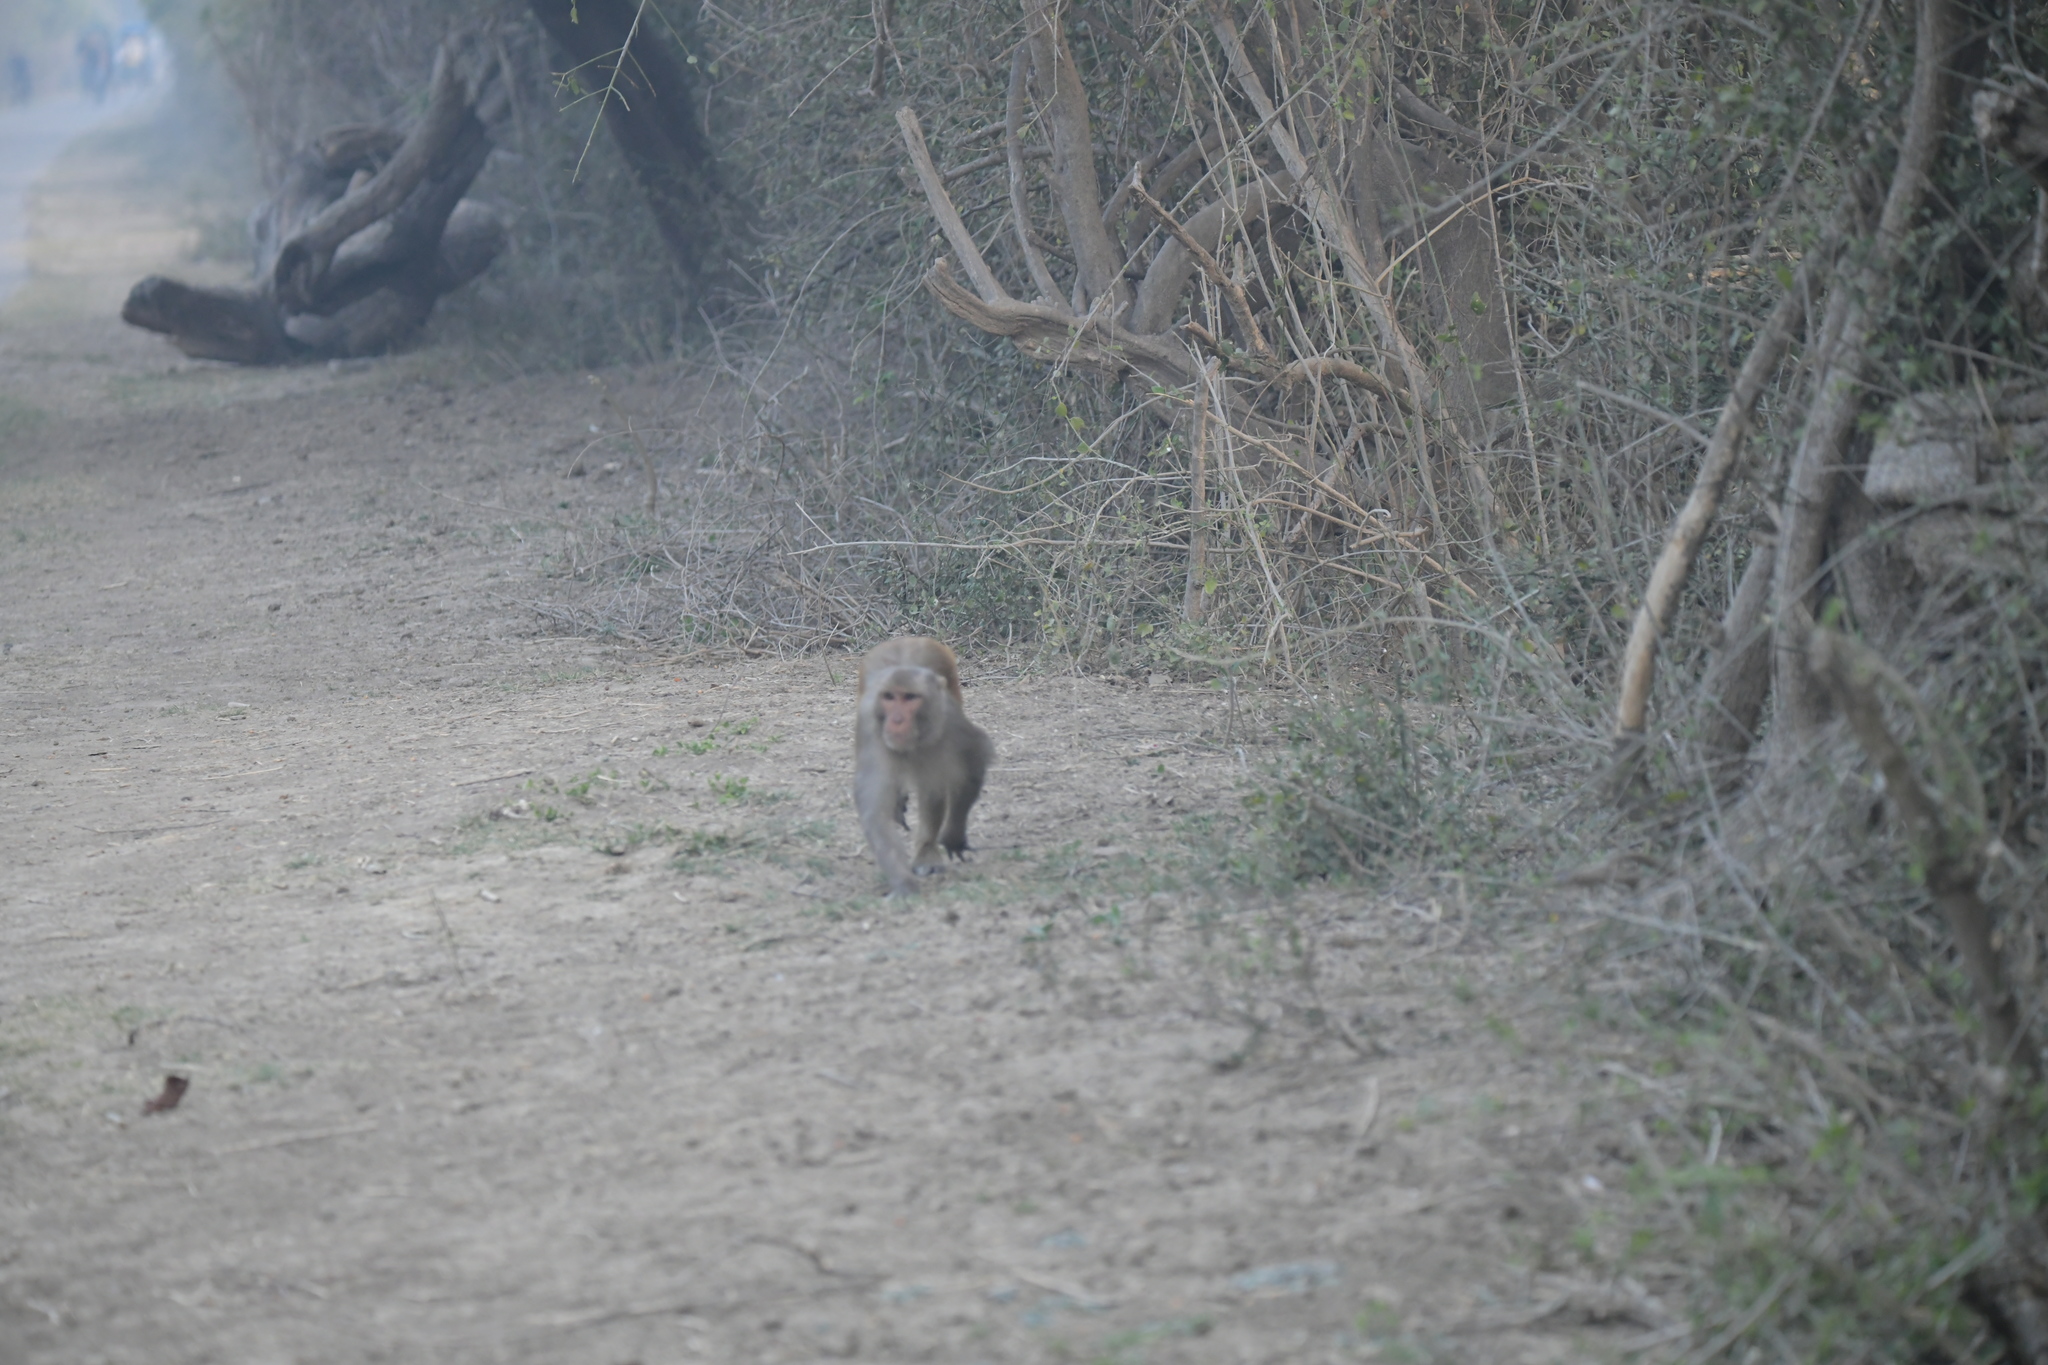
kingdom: Animalia
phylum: Chordata
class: Mammalia
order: Primates
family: Cercopithecidae
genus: Macaca
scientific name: Macaca mulatta
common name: Rhesus monkey
